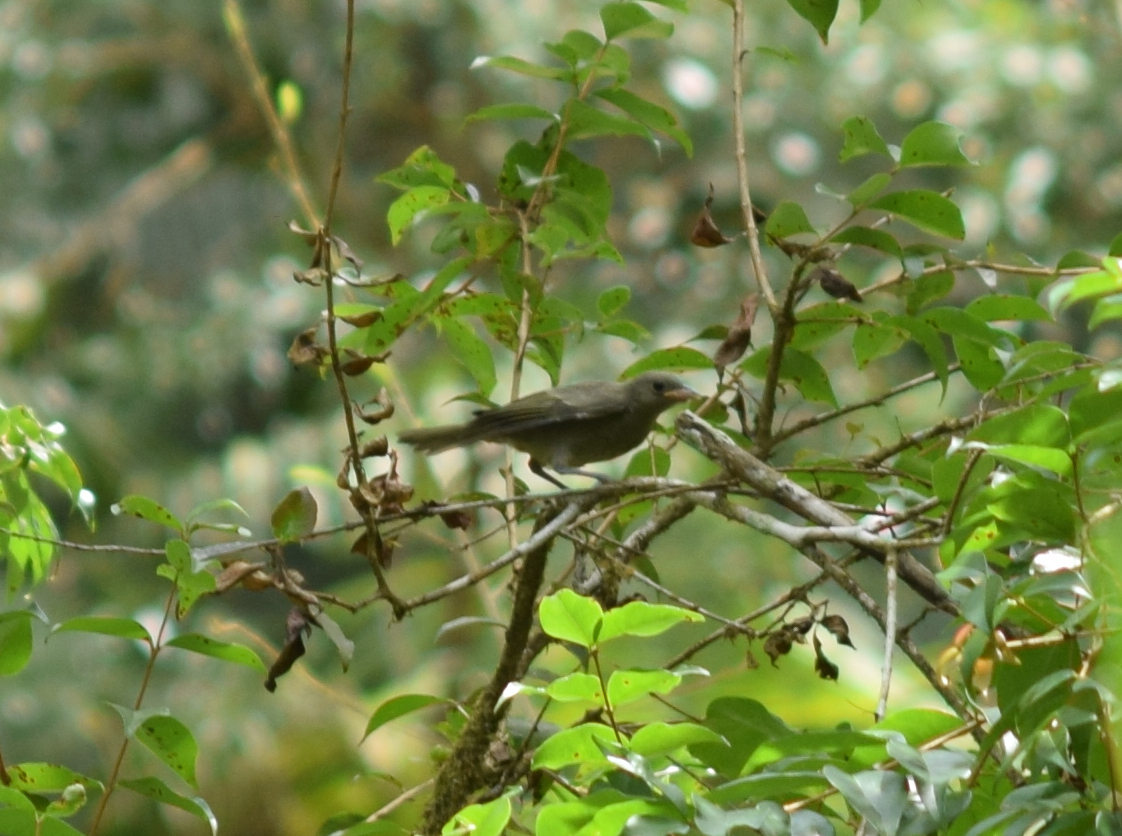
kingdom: Animalia
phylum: Chordata
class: Aves
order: Passeriformes
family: Thraupidae
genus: Thraupis
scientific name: Thraupis palmarum
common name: Palm tanager
